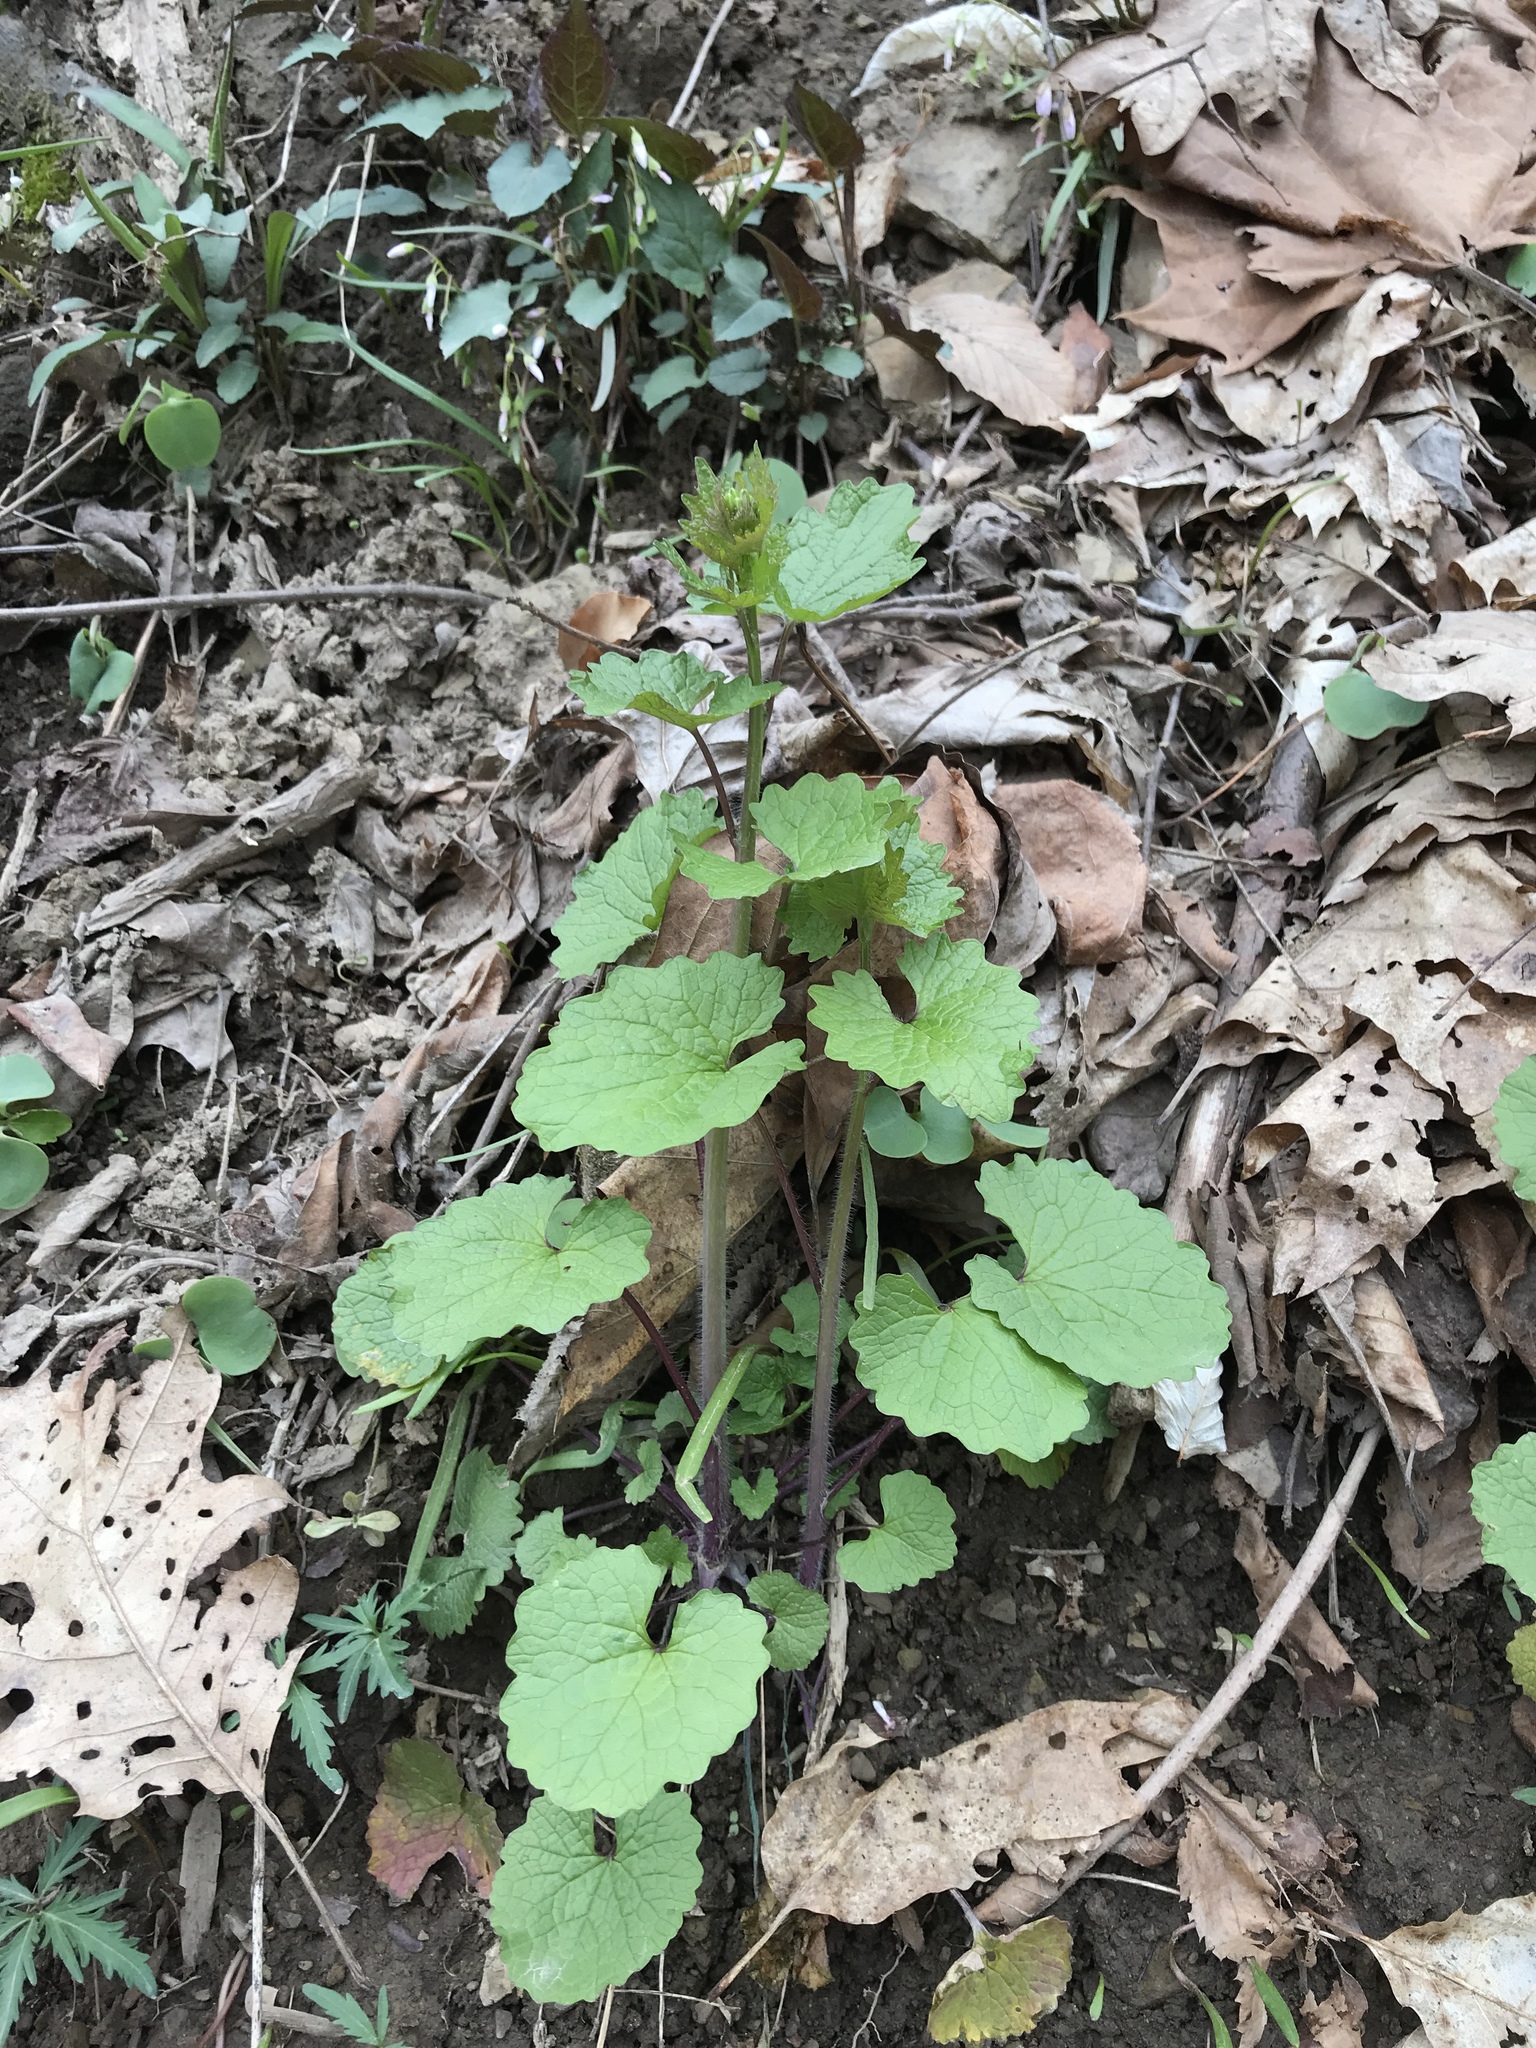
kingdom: Plantae
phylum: Tracheophyta
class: Magnoliopsida
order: Brassicales
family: Brassicaceae
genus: Alliaria
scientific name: Alliaria petiolata
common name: Garlic mustard
